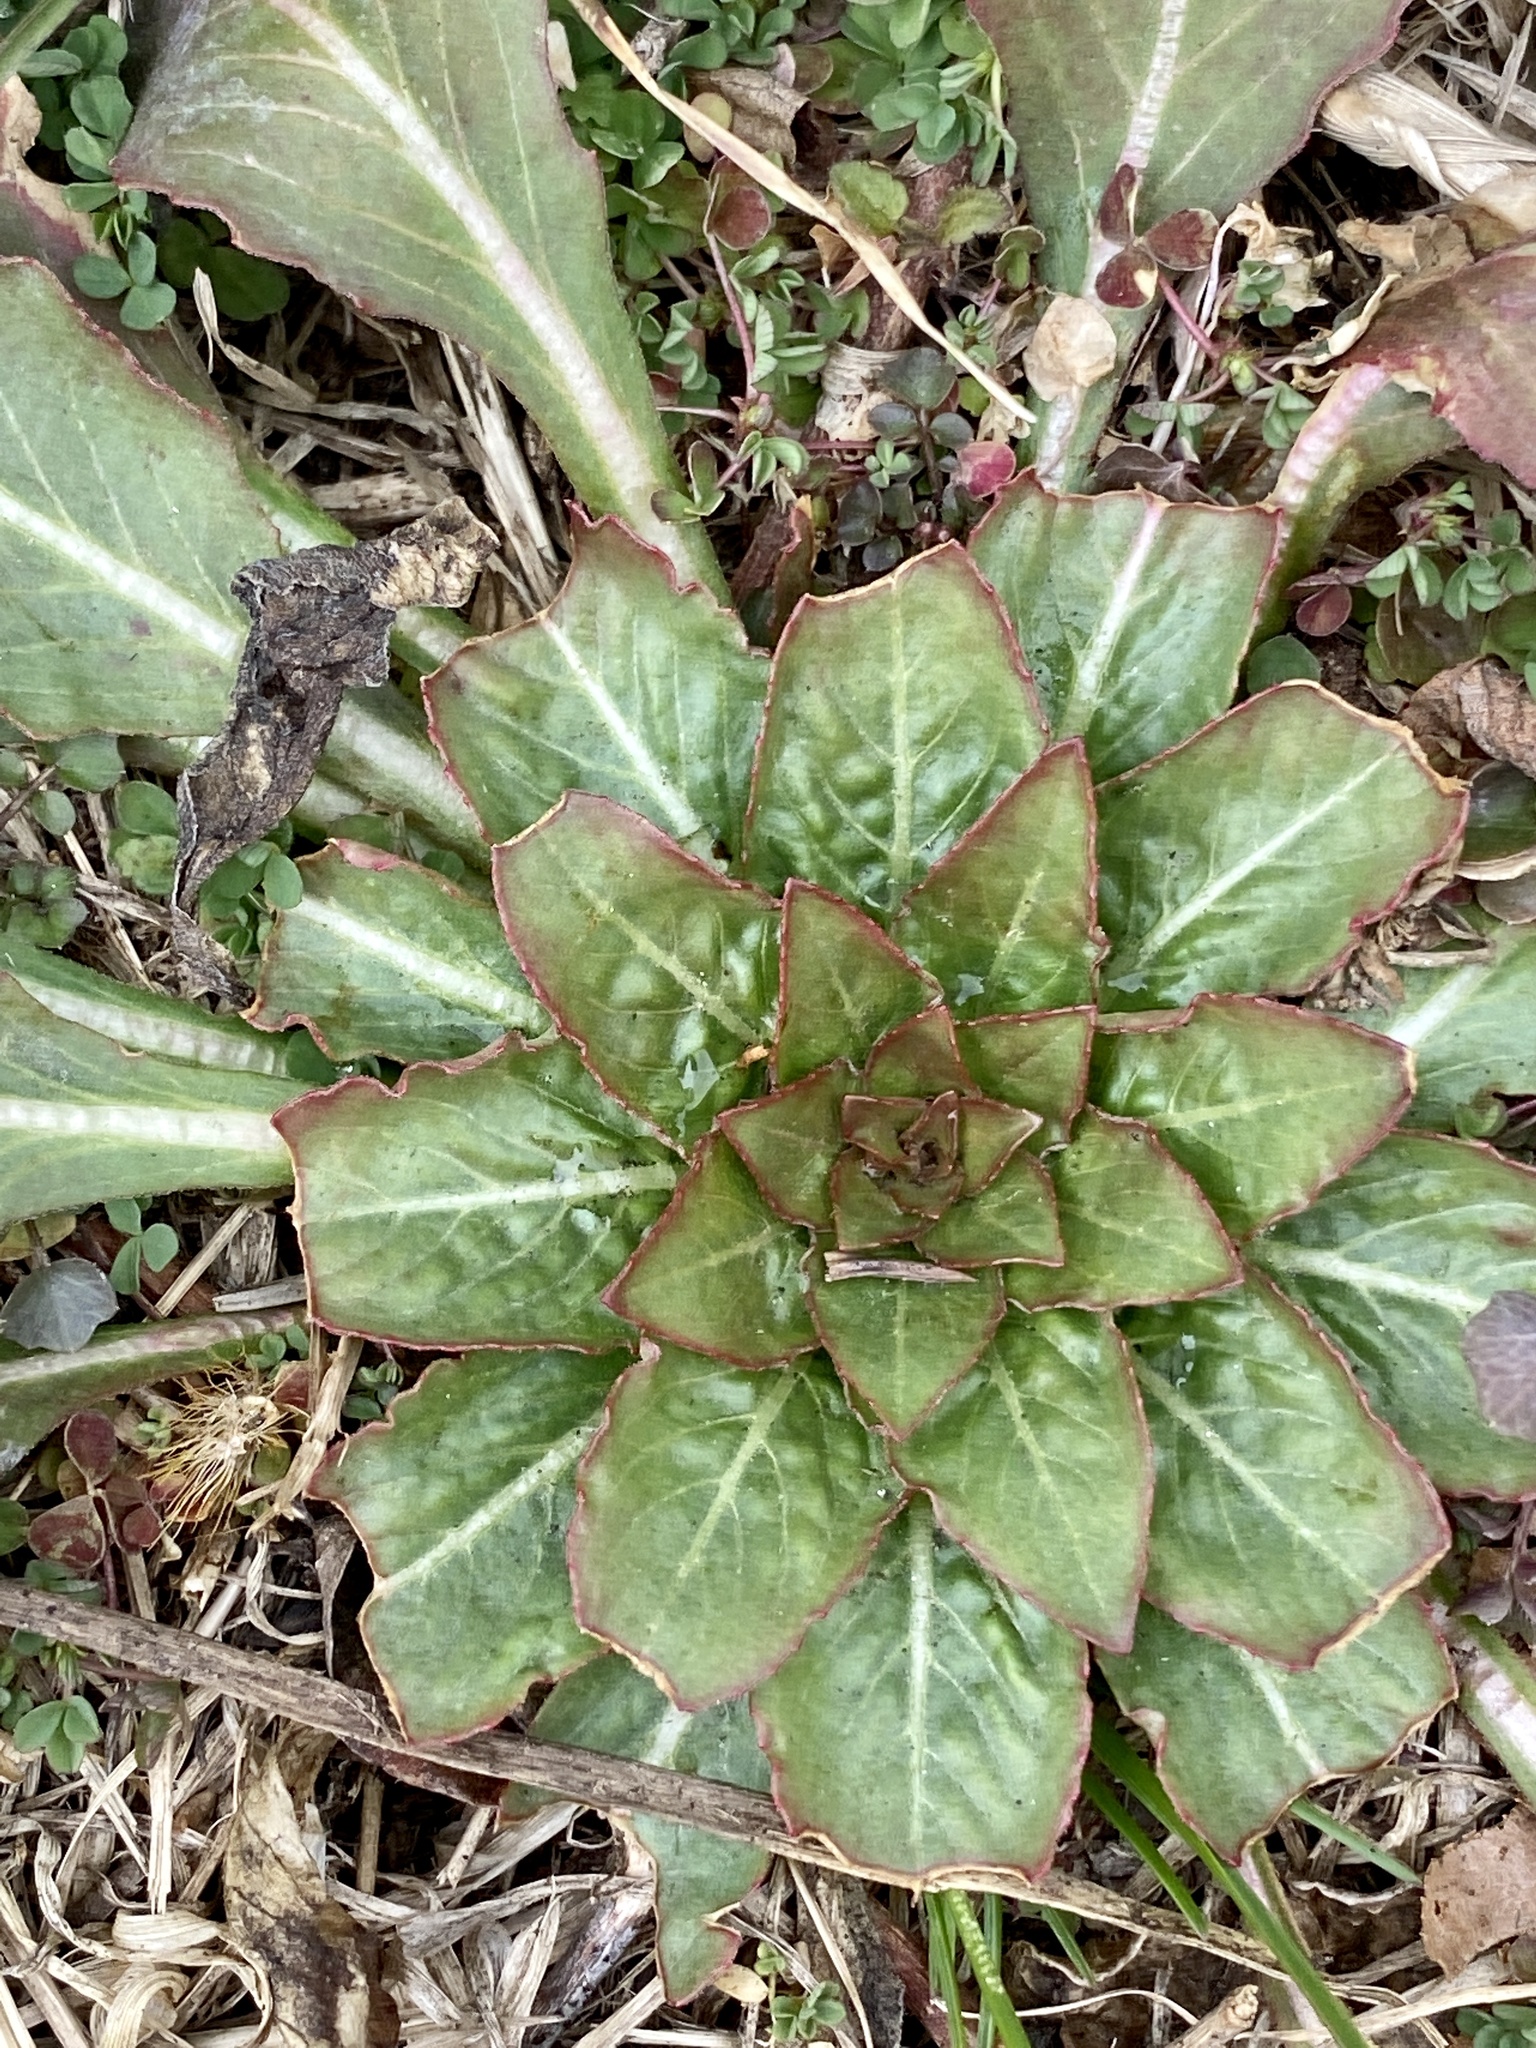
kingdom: Plantae
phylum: Tracheophyta
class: Magnoliopsida
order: Myrtales
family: Onagraceae
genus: Oenothera
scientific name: Oenothera biennis
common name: Common evening-primrose
